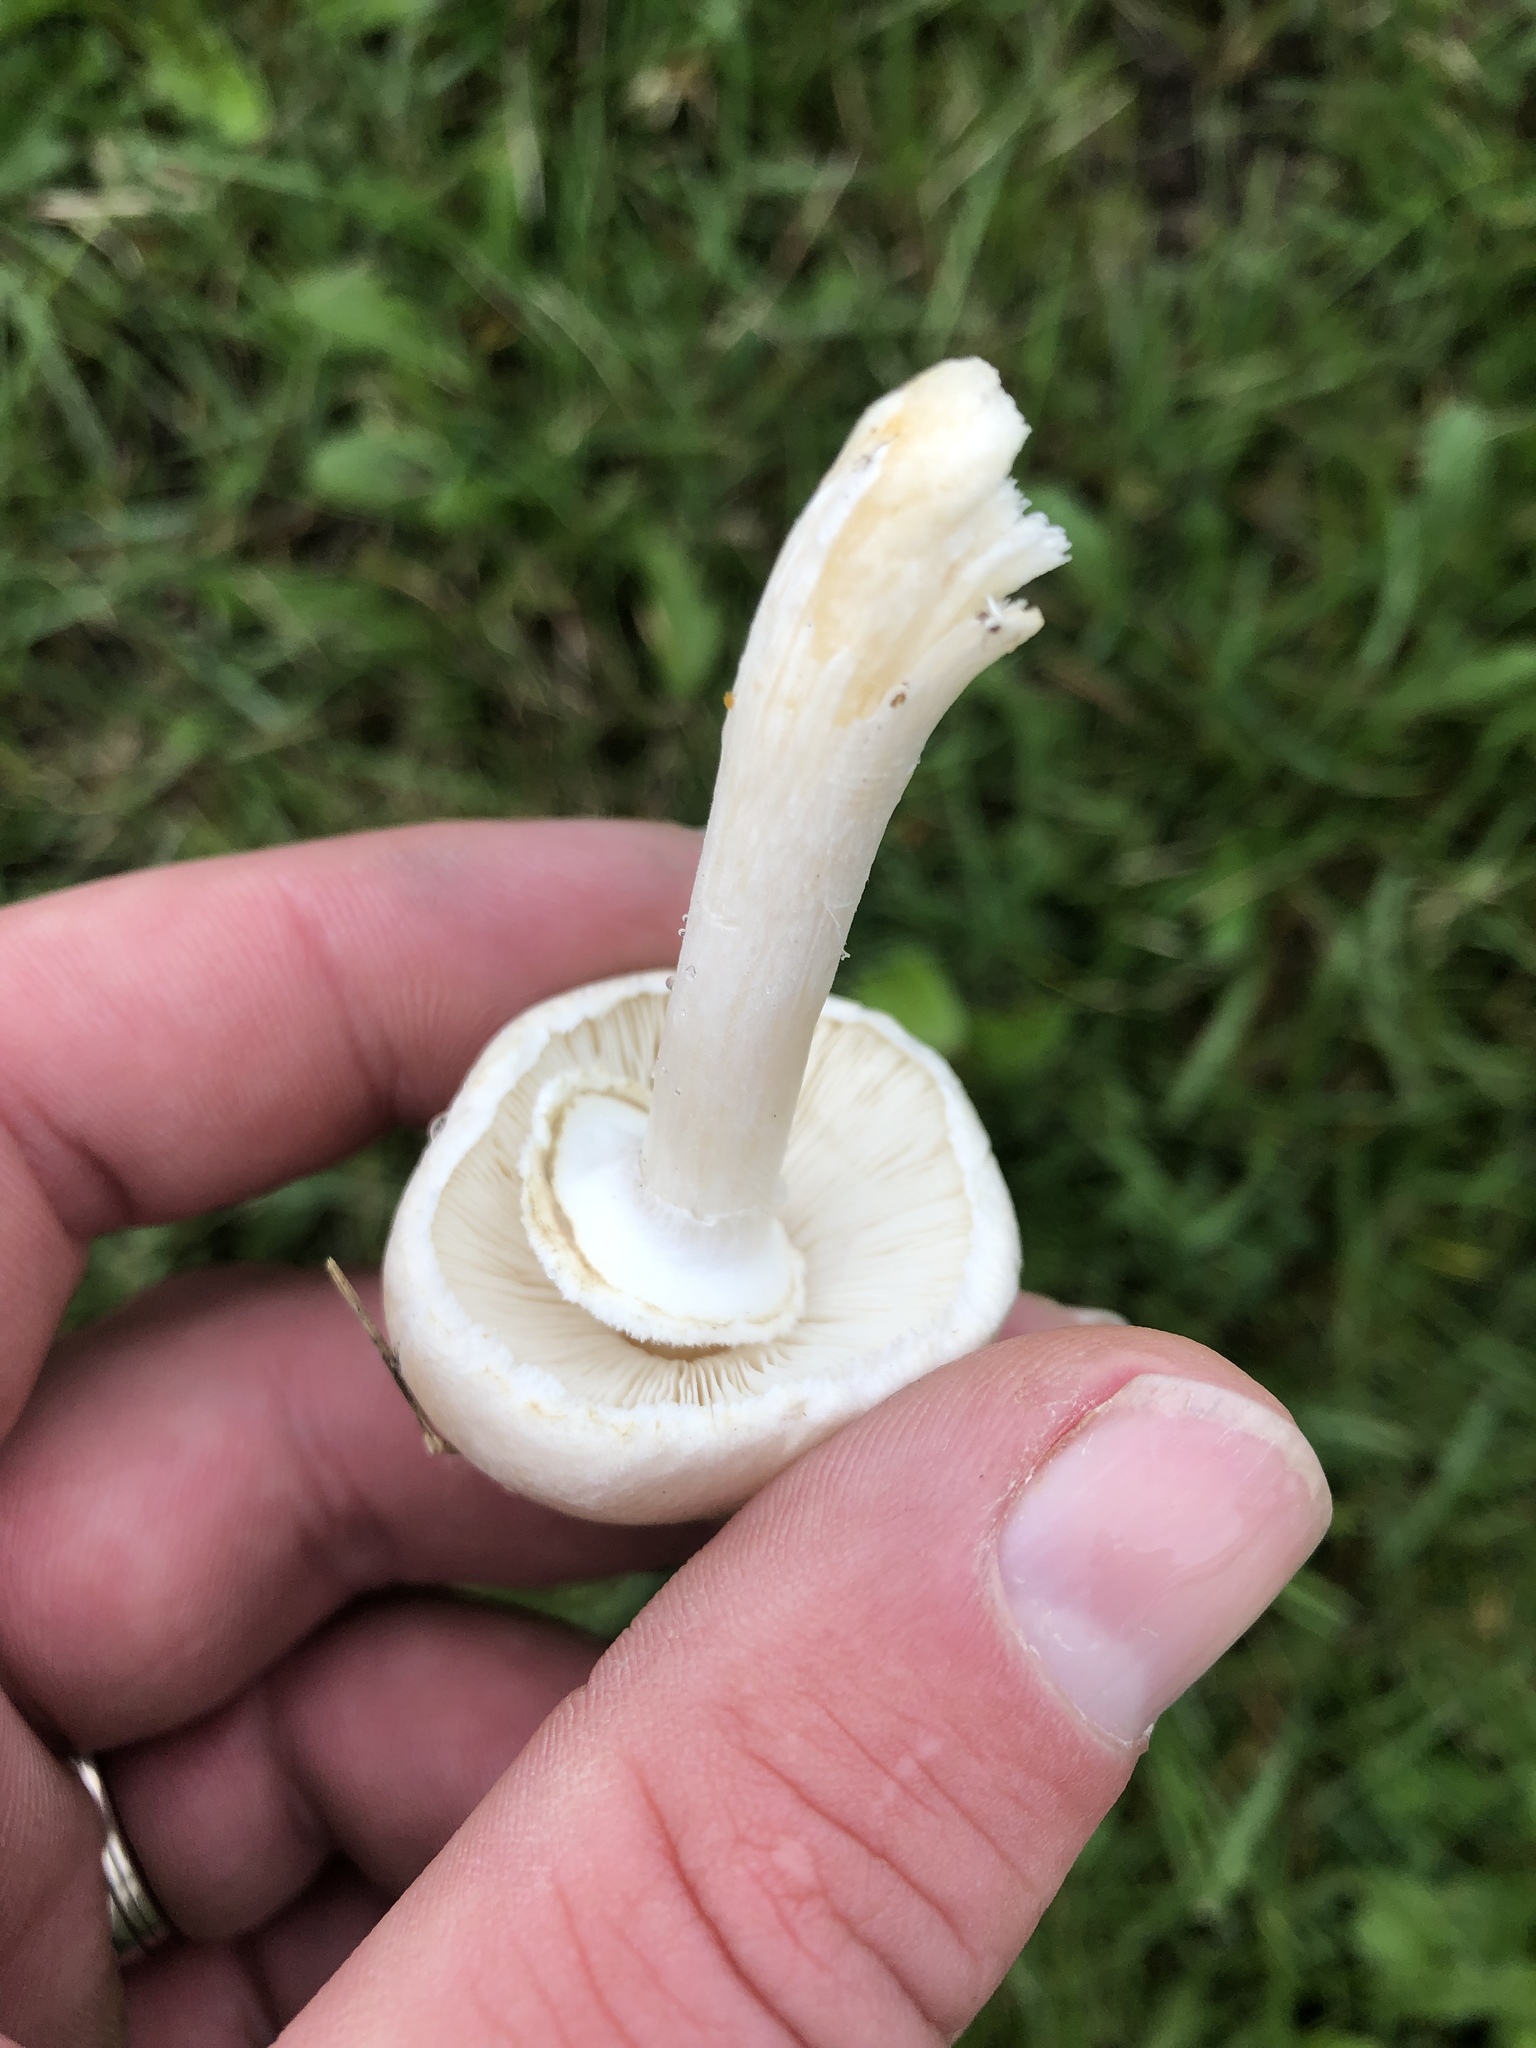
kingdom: Fungi
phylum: Basidiomycota
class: Agaricomycetes
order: Agaricales
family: Agaricaceae
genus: Leucoagaricus
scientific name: Leucoagaricus leucothites
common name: White dapperling
